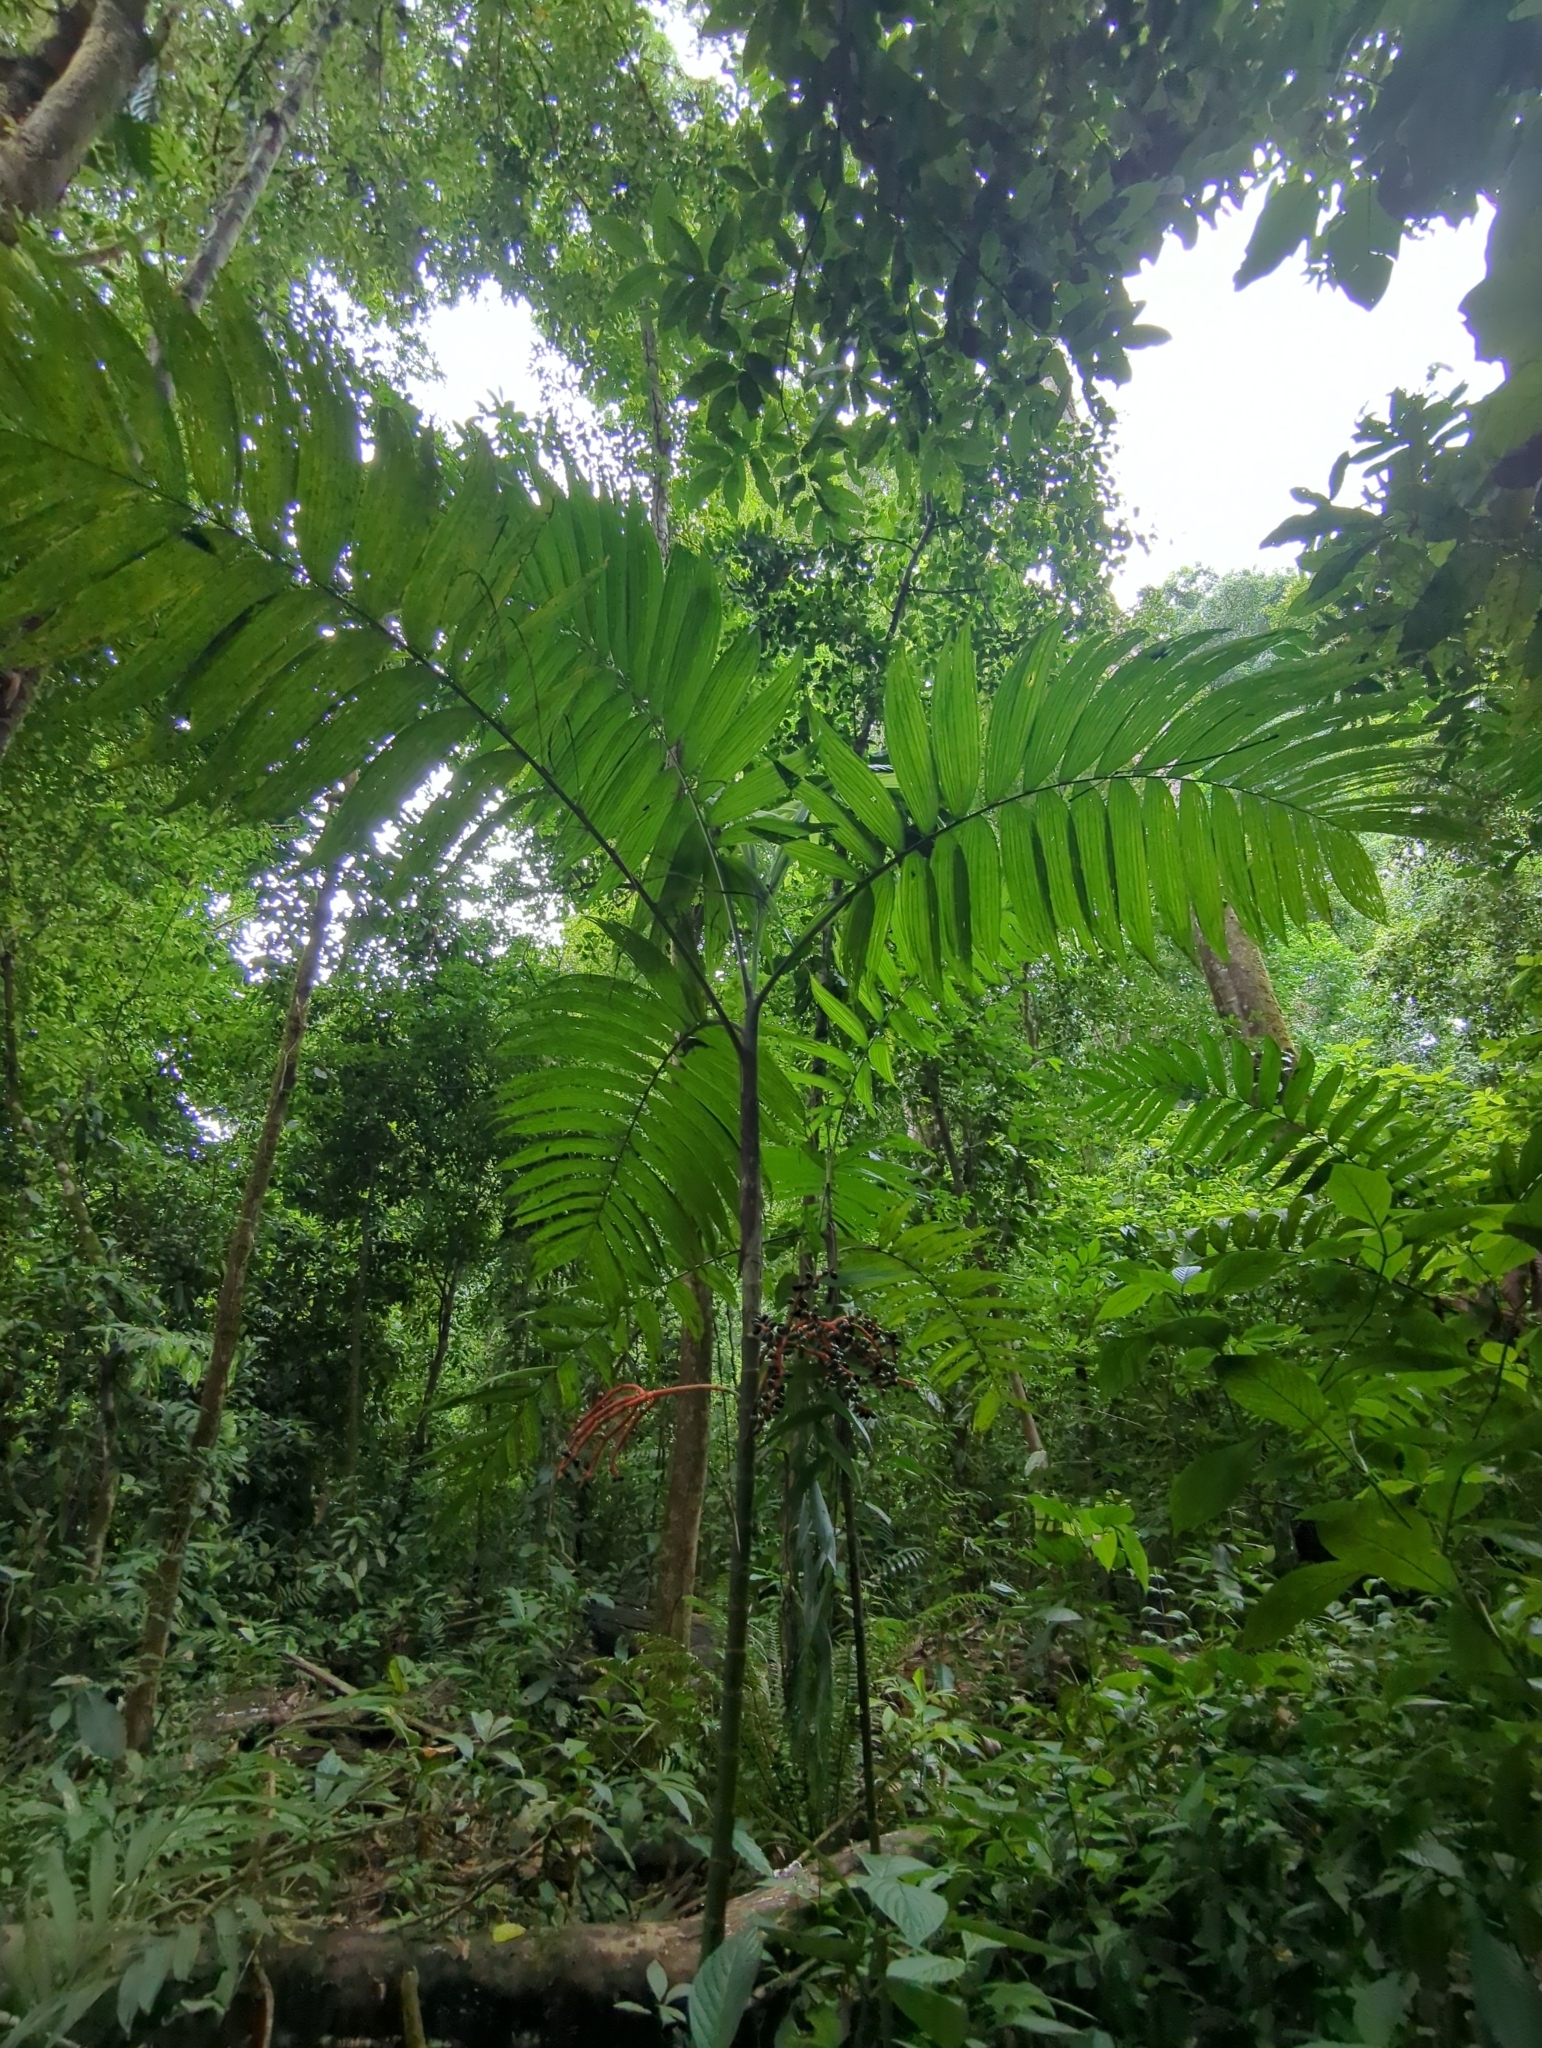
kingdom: Plantae
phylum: Tracheophyta
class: Liliopsida
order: Arecales
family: Arecaceae
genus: Chamaedorea
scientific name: Chamaedorea tepejilote
